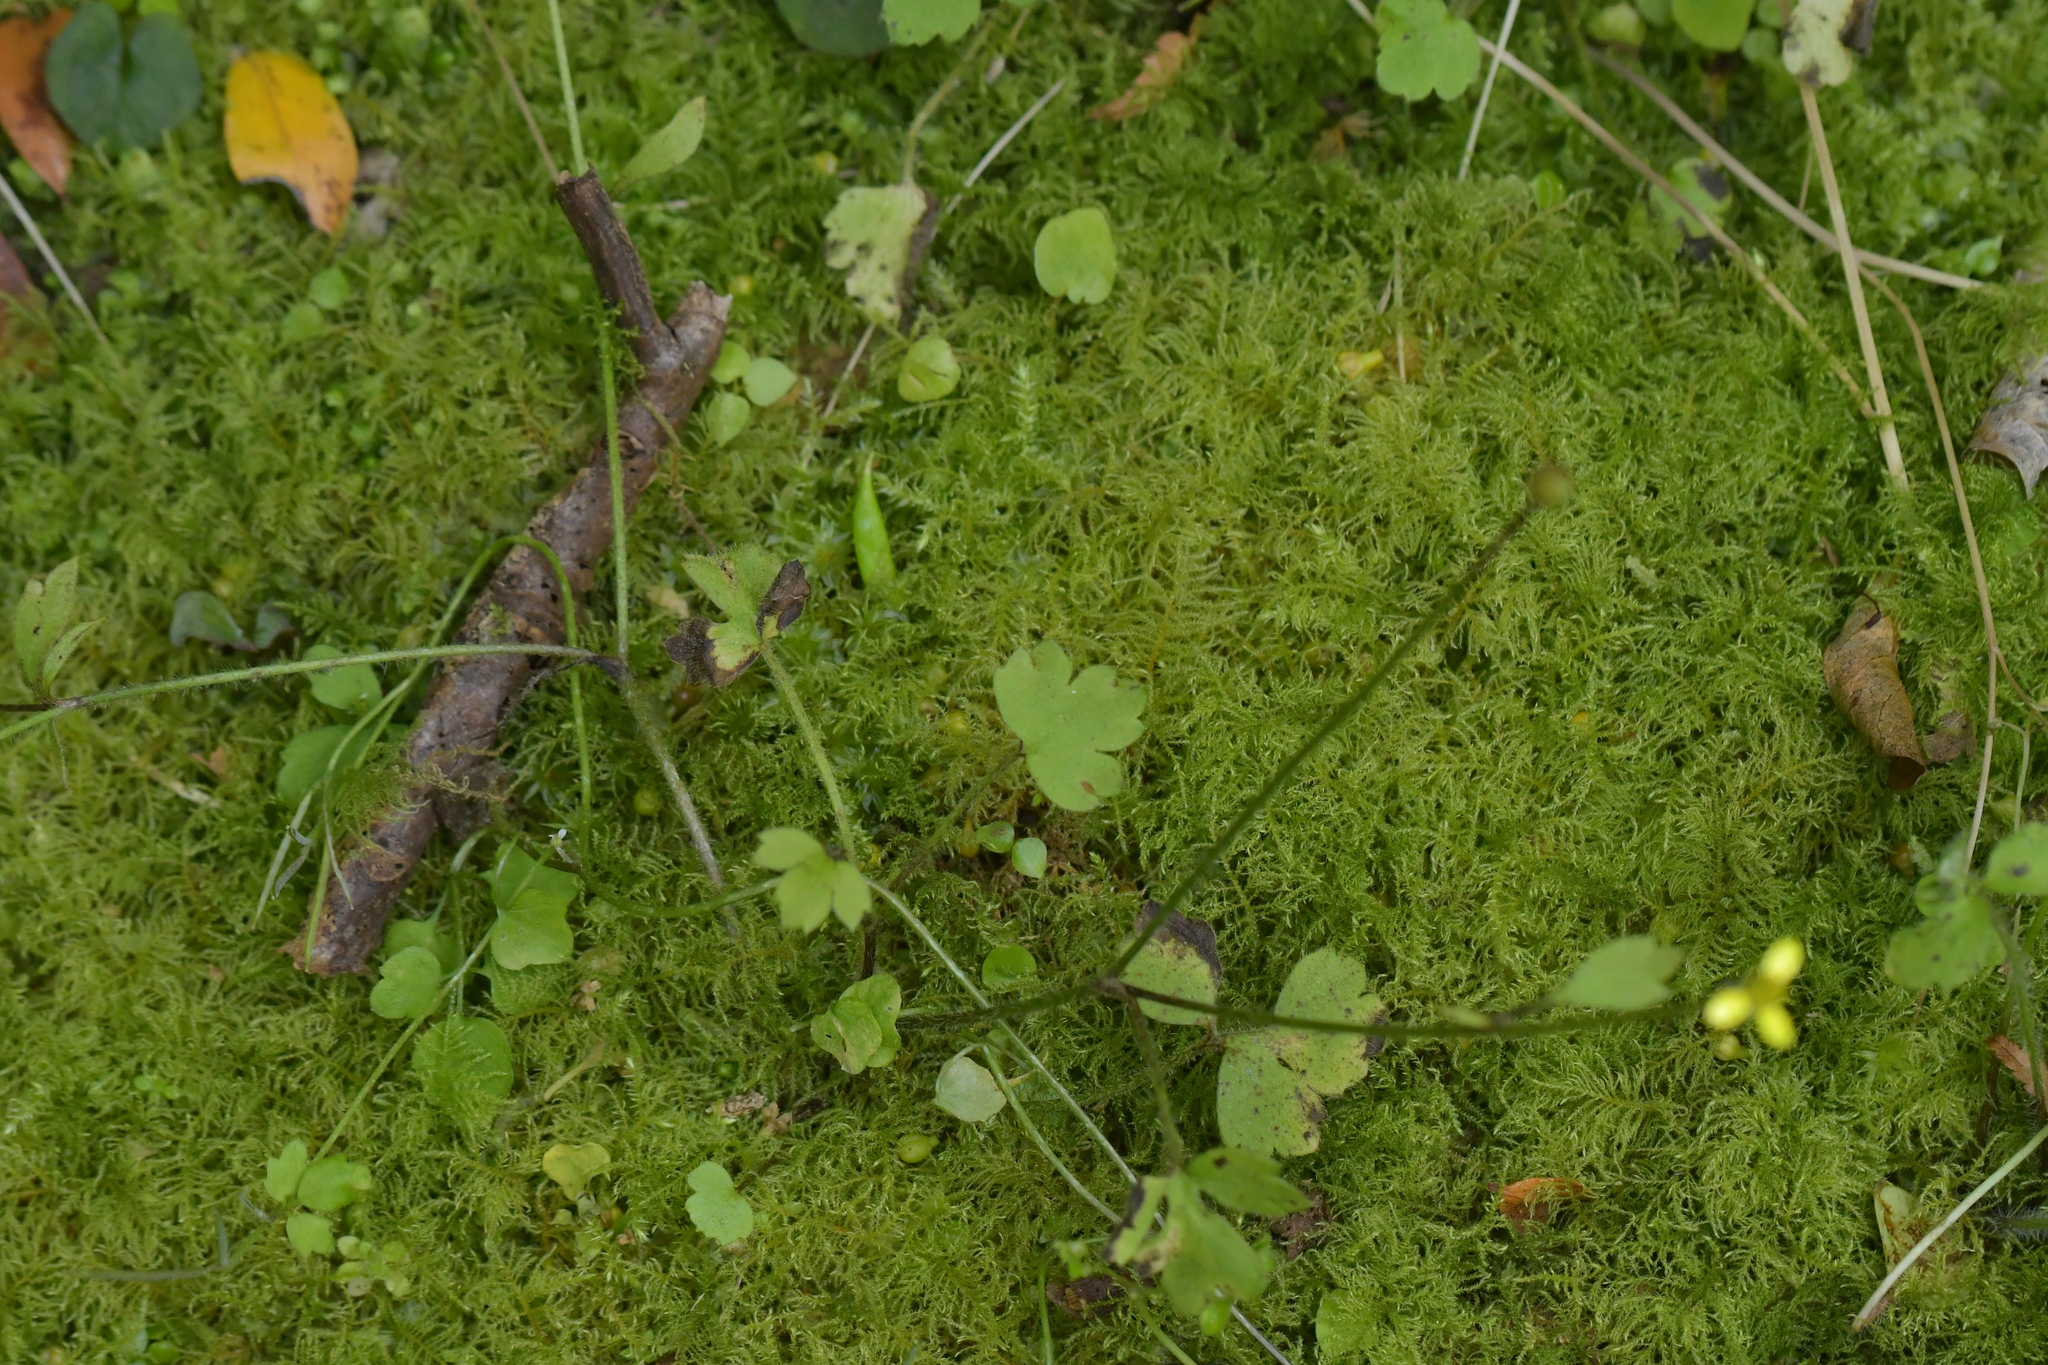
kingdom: Plantae
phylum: Tracheophyta
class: Magnoliopsida
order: Ranunculales
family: Ranunculaceae
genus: Ranunculus
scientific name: Ranunculus reflexus
